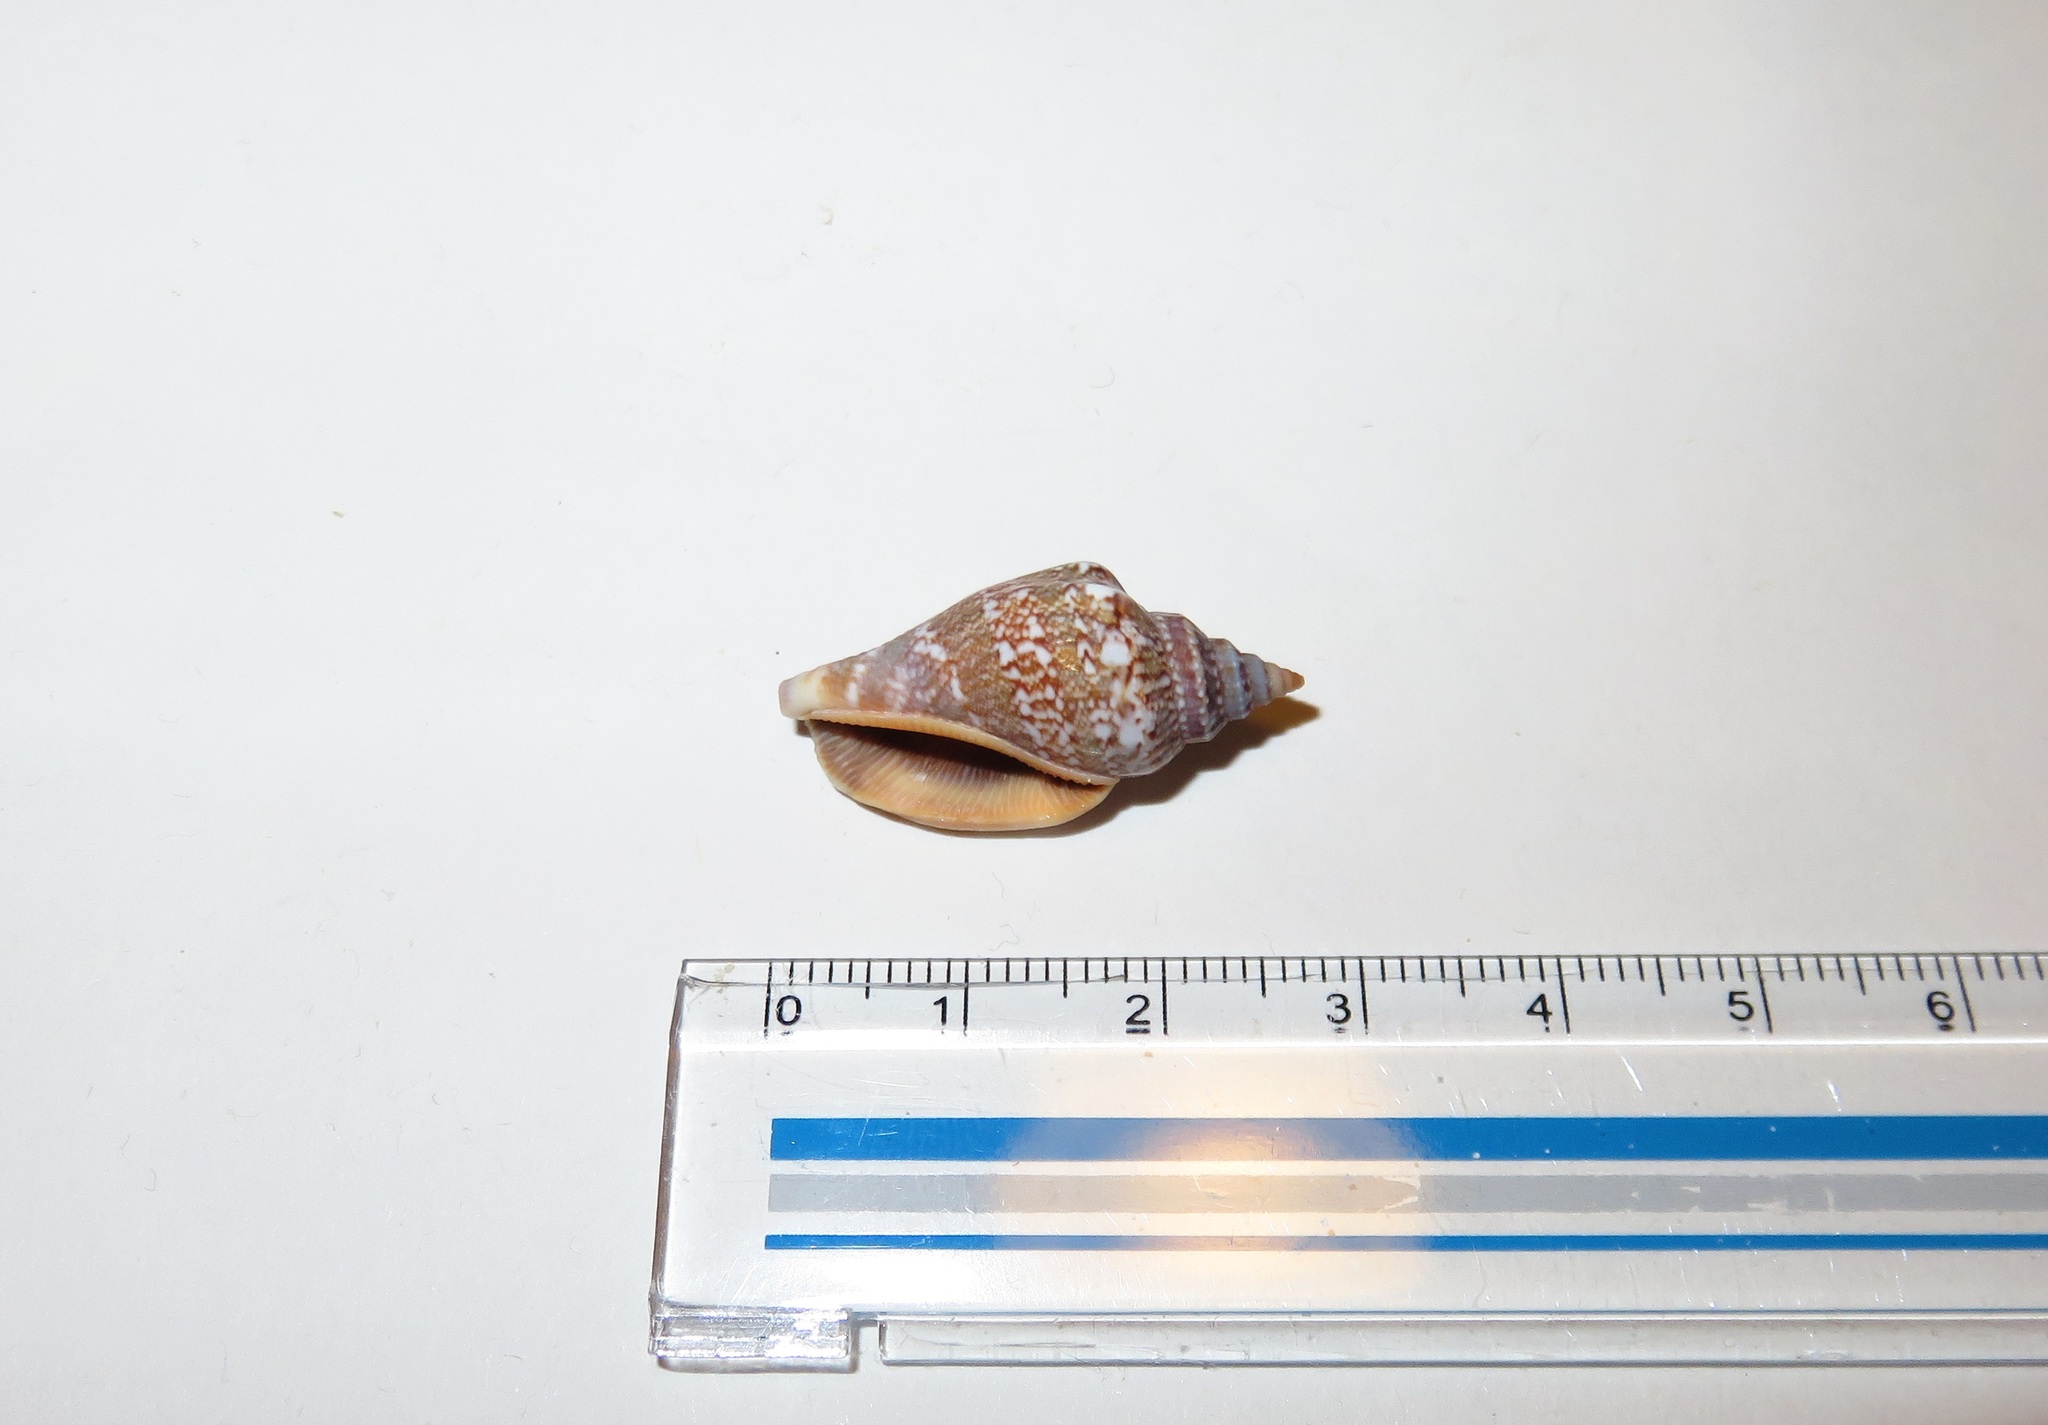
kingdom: Animalia
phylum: Mollusca
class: Gastropoda
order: Littorinimorpha
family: Strombidae
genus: Canarium
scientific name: Canarium urceus
